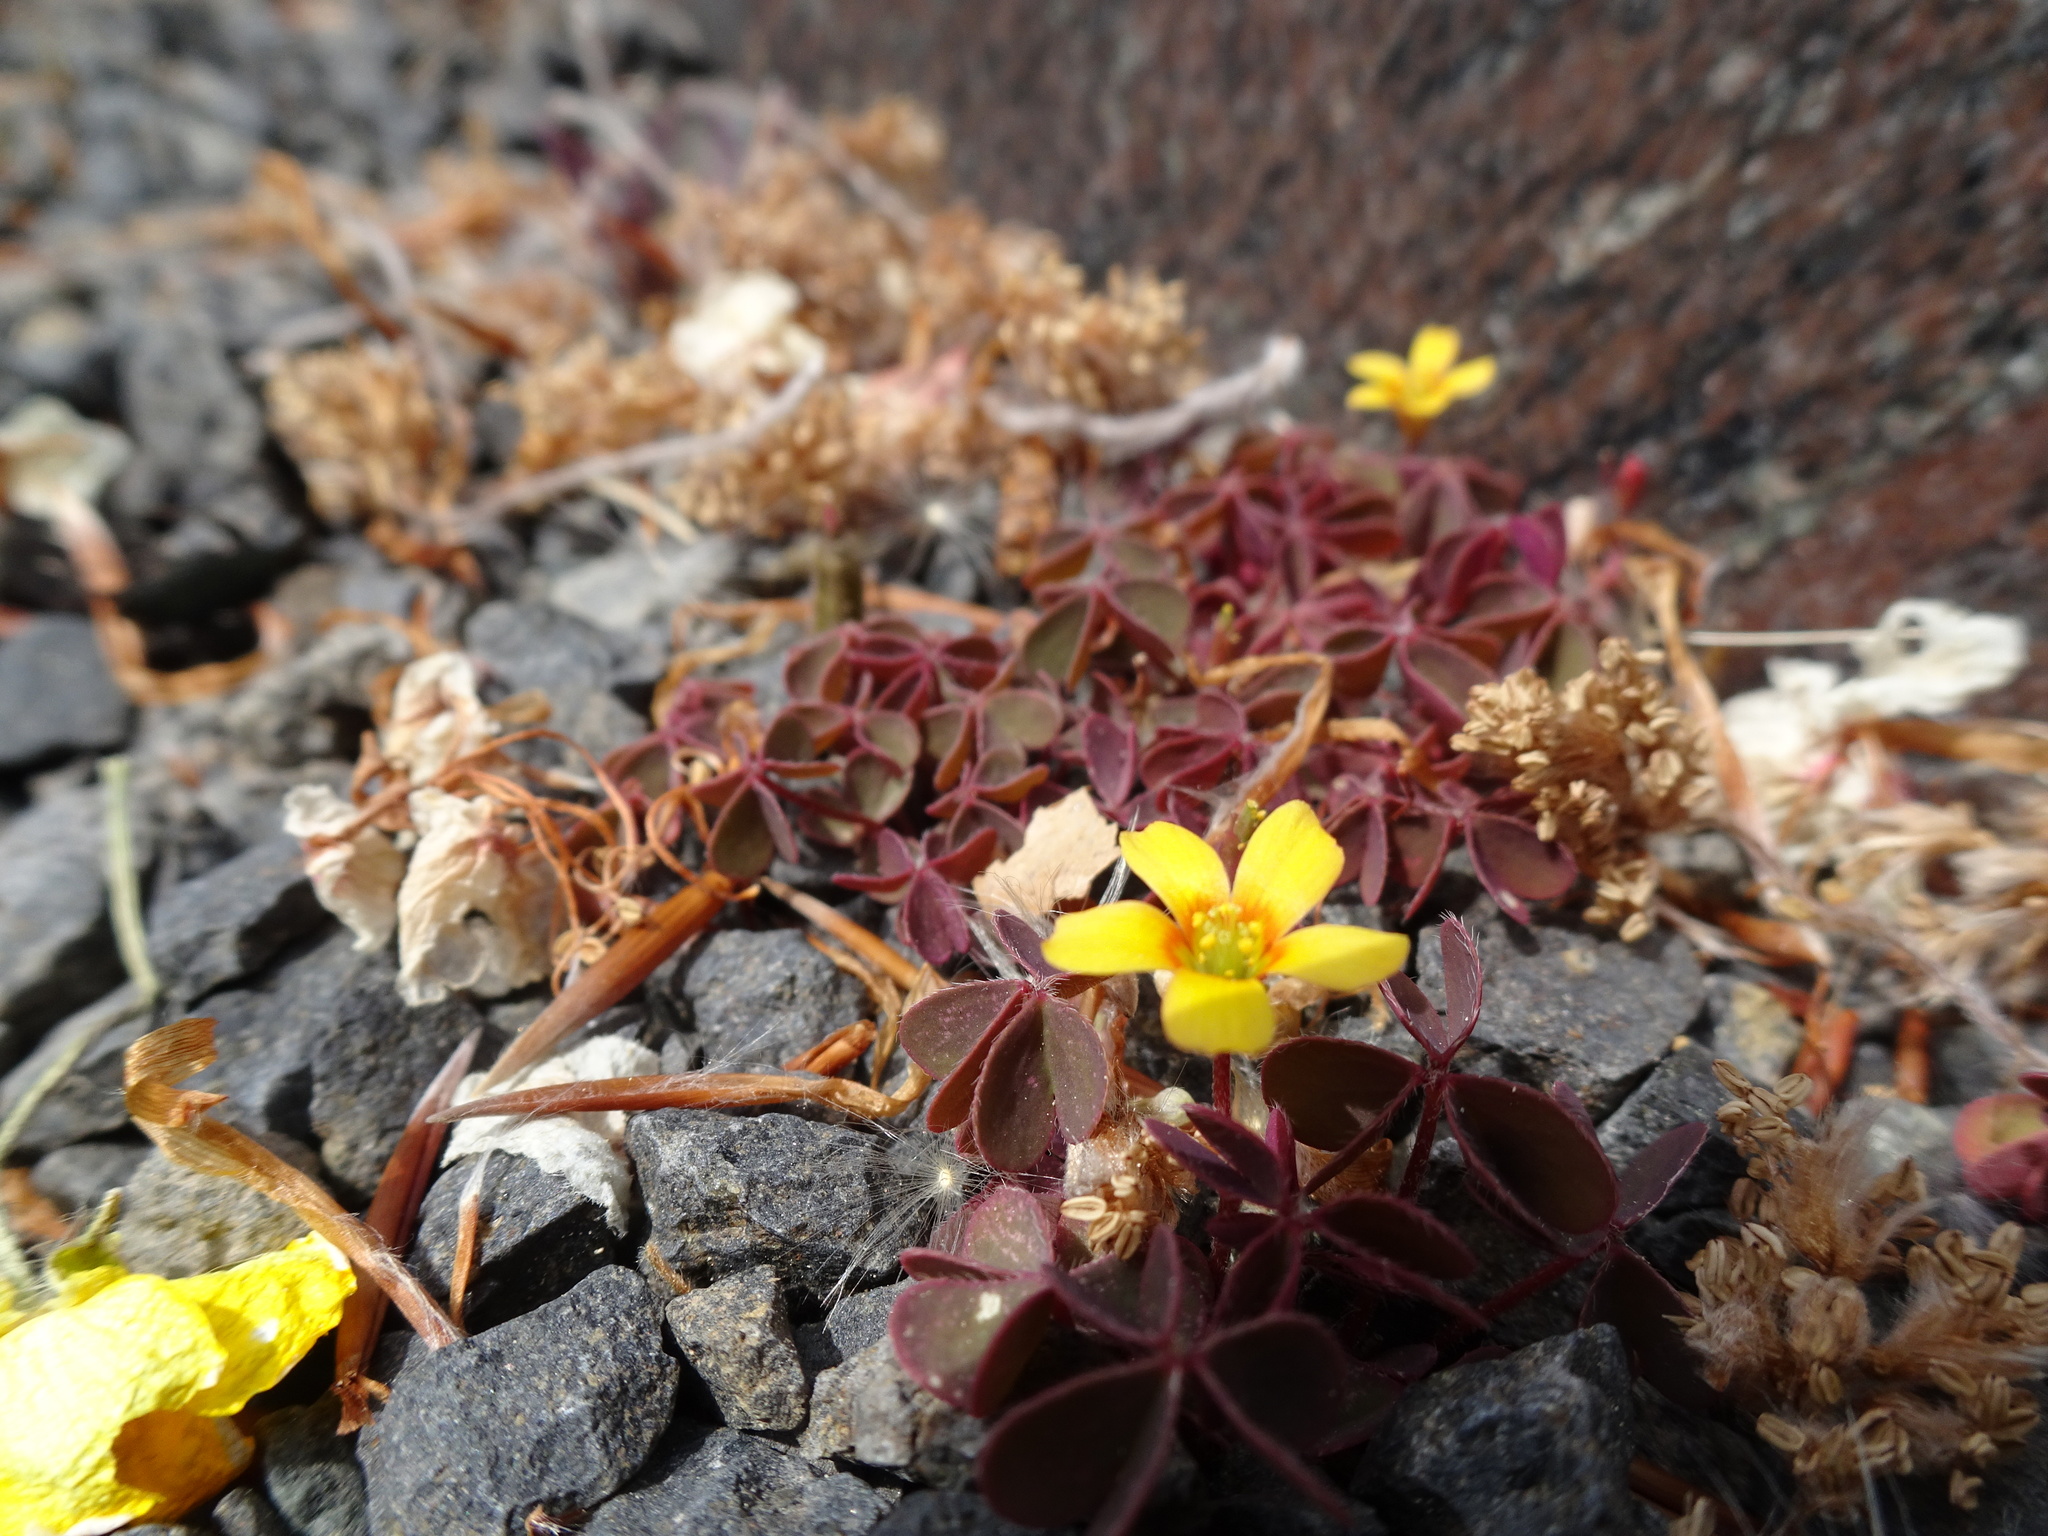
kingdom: Plantae
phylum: Tracheophyta
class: Magnoliopsida
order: Oxalidales
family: Oxalidaceae
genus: Oxalis
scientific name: Oxalis corniculata
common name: Procumbent yellow-sorrel
